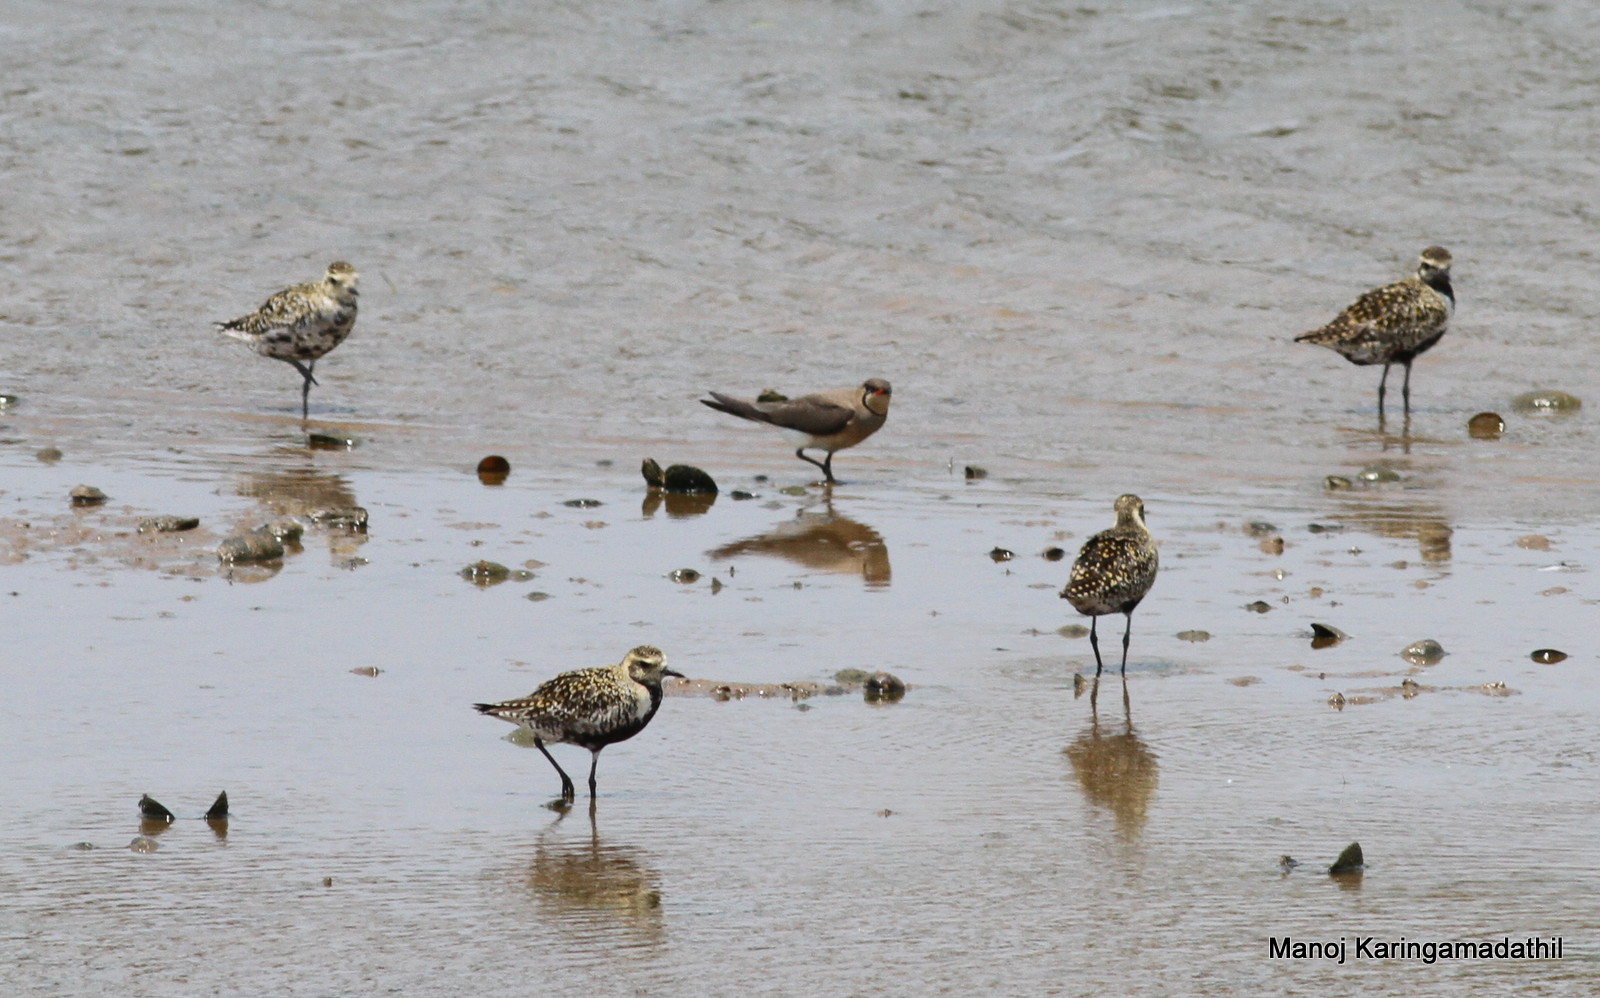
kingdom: Animalia
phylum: Chordata
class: Aves
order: Charadriiformes
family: Glareolidae
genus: Glareola
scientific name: Glareola maldivarum
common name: Oriental pratincole
